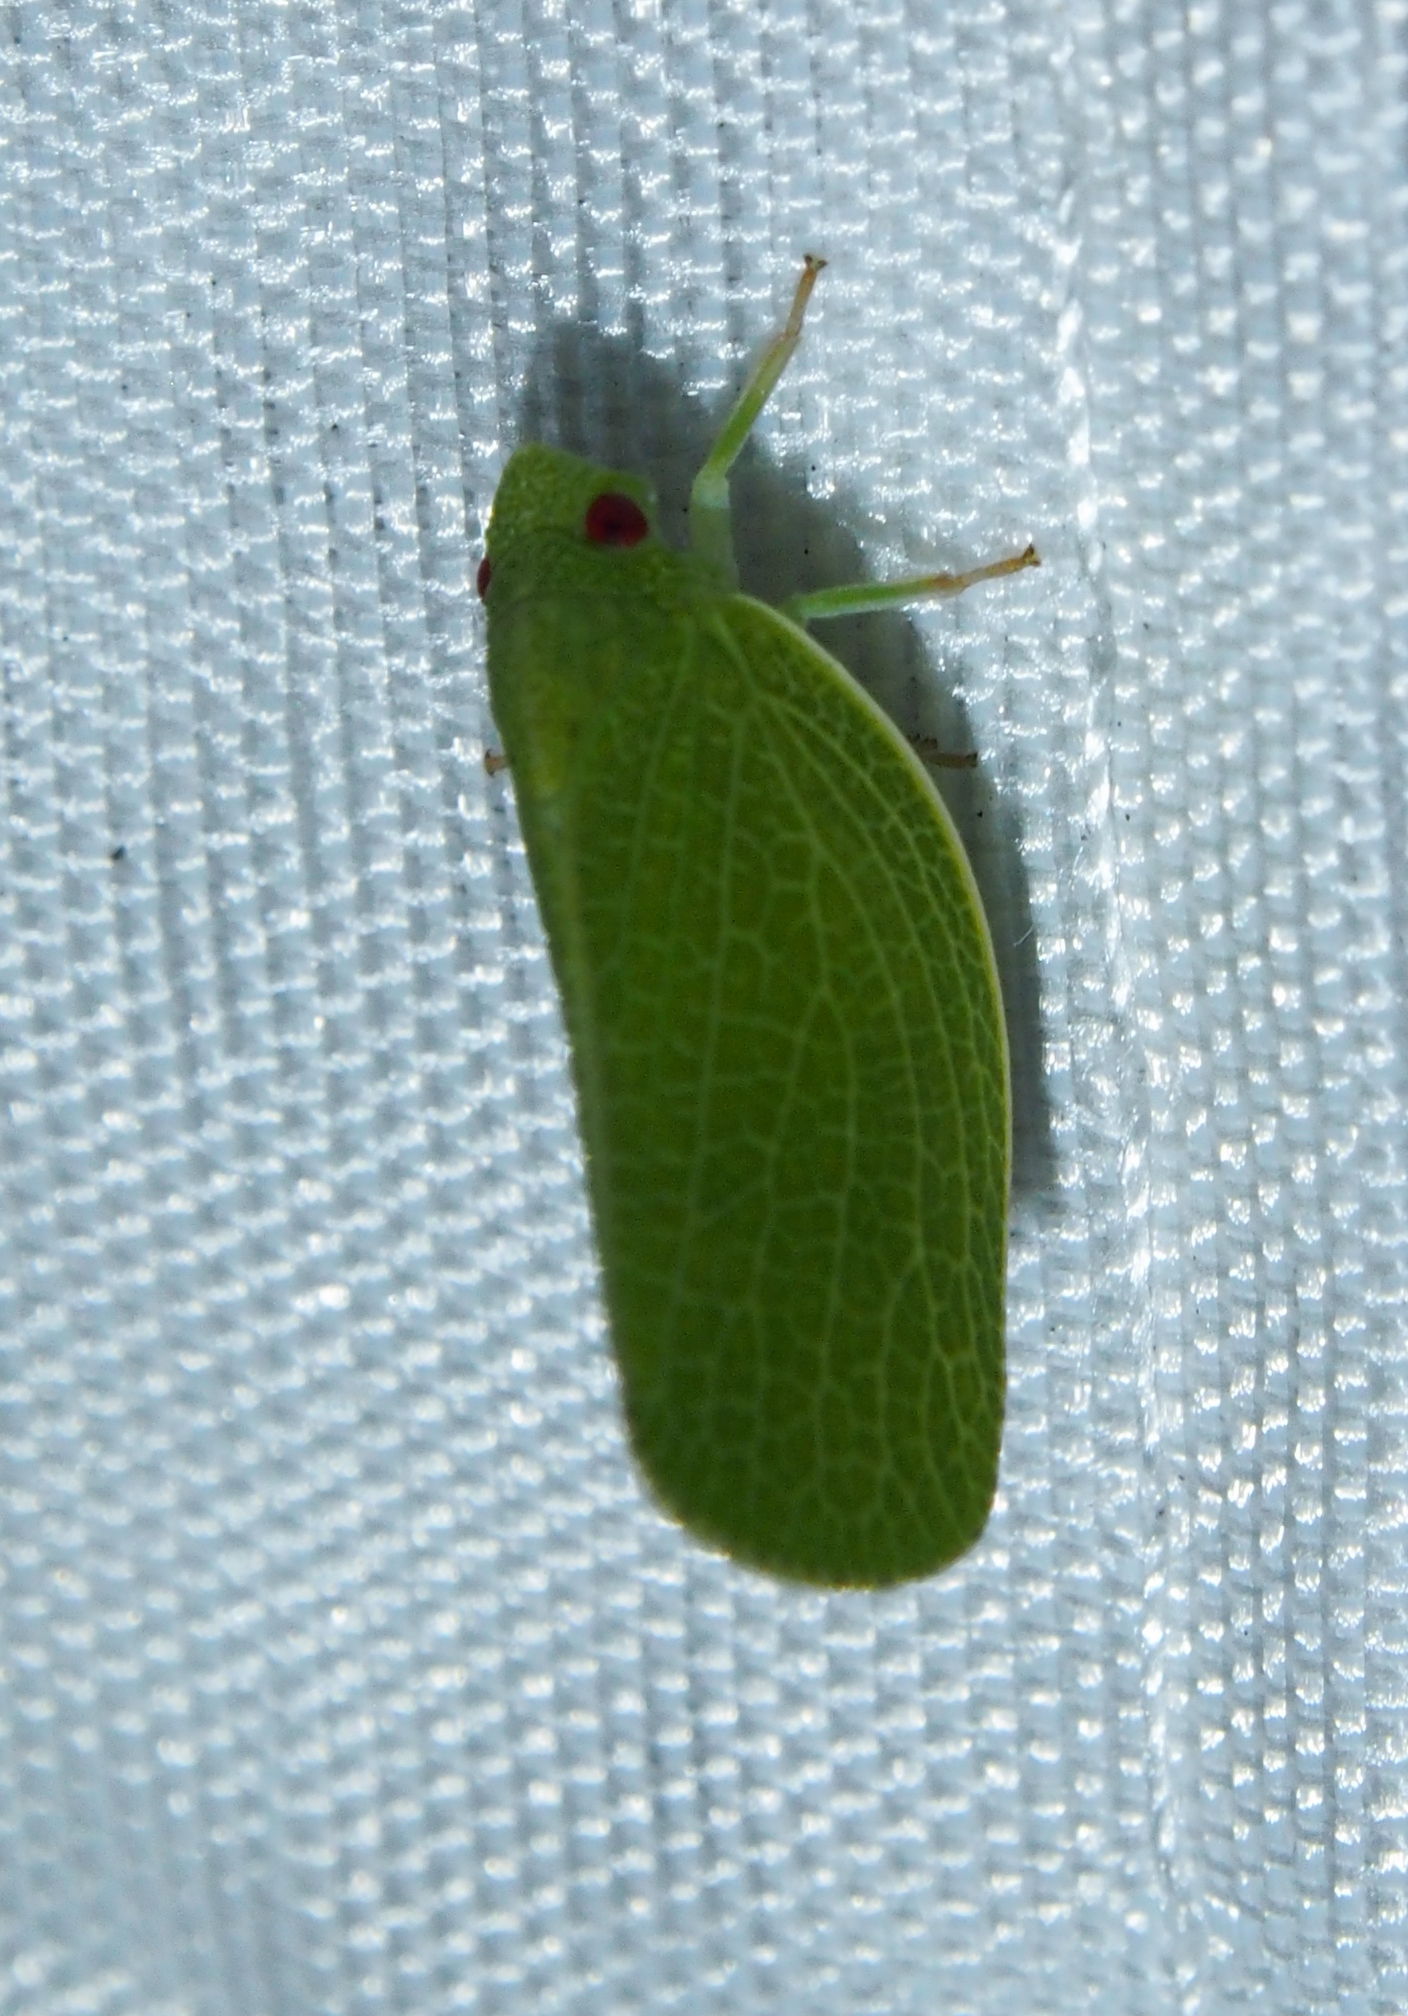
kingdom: Animalia
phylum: Arthropoda
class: Insecta
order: Hemiptera
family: Acanaloniidae
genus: Acanalonia
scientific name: Acanalonia conica
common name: Green cone-headed planthopper
